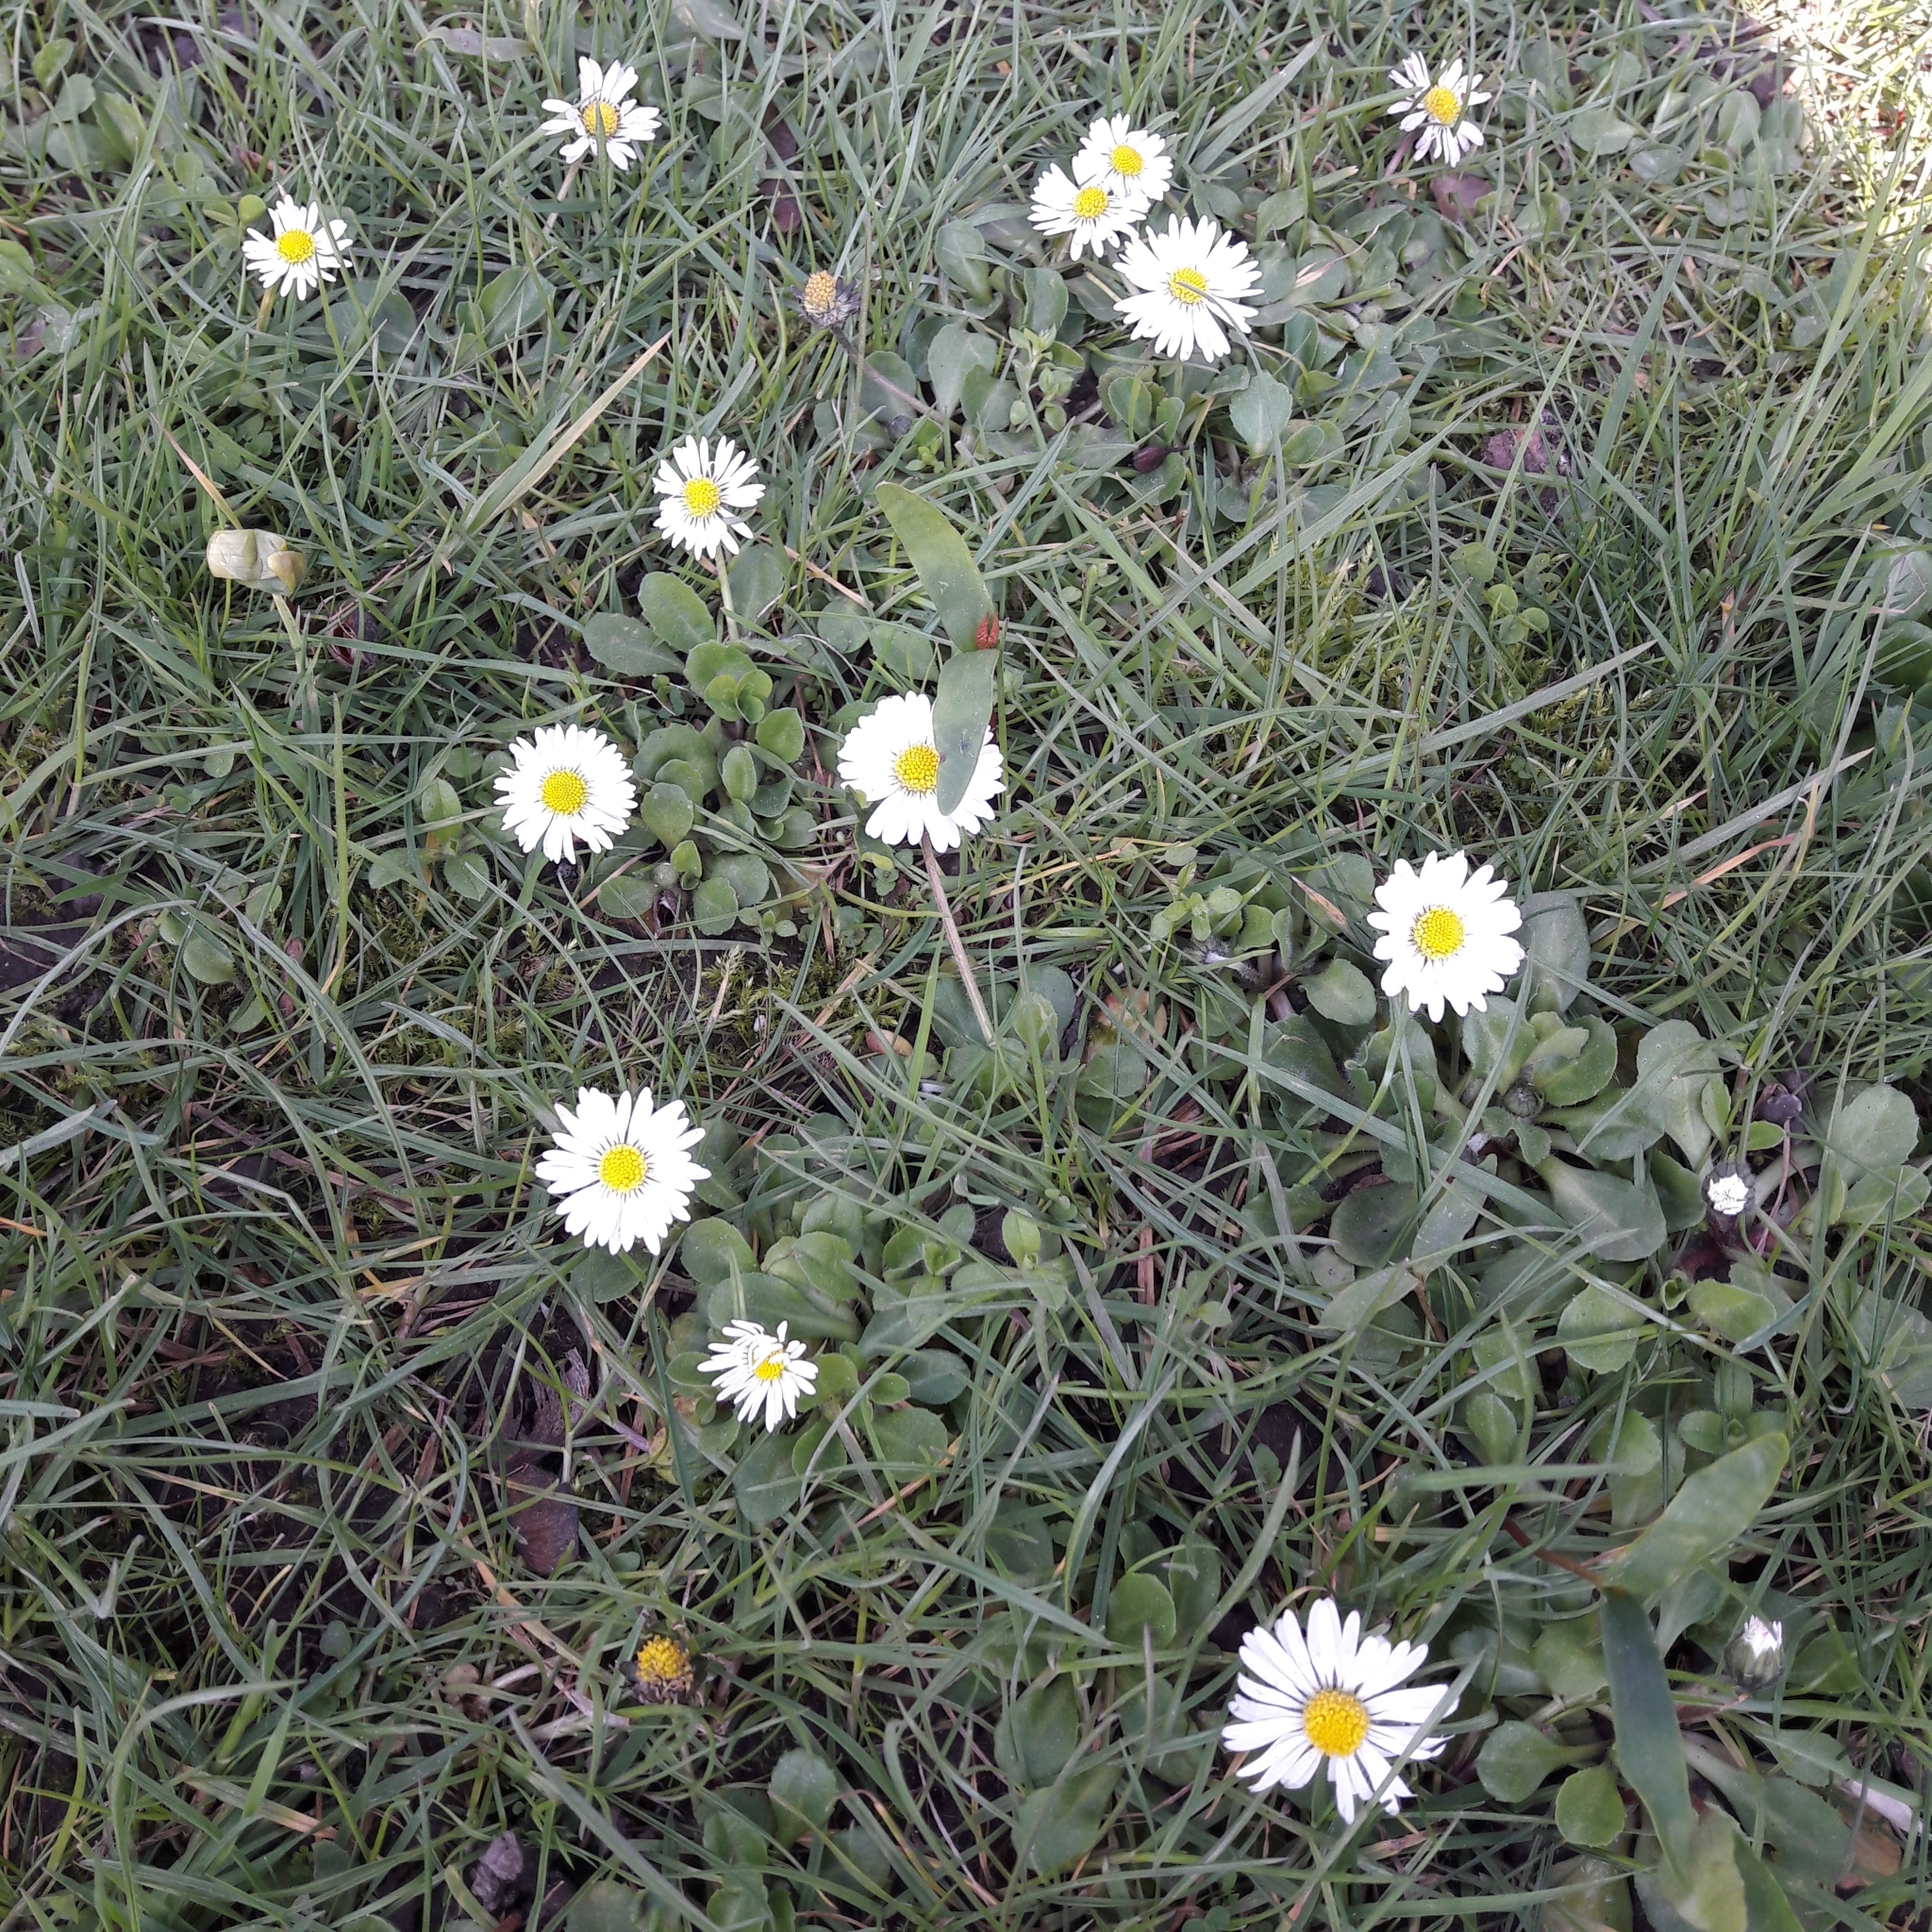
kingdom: Plantae
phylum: Tracheophyta
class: Magnoliopsida
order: Asterales
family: Asteraceae
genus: Bellis
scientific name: Bellis perennis
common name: Lawndaisy
